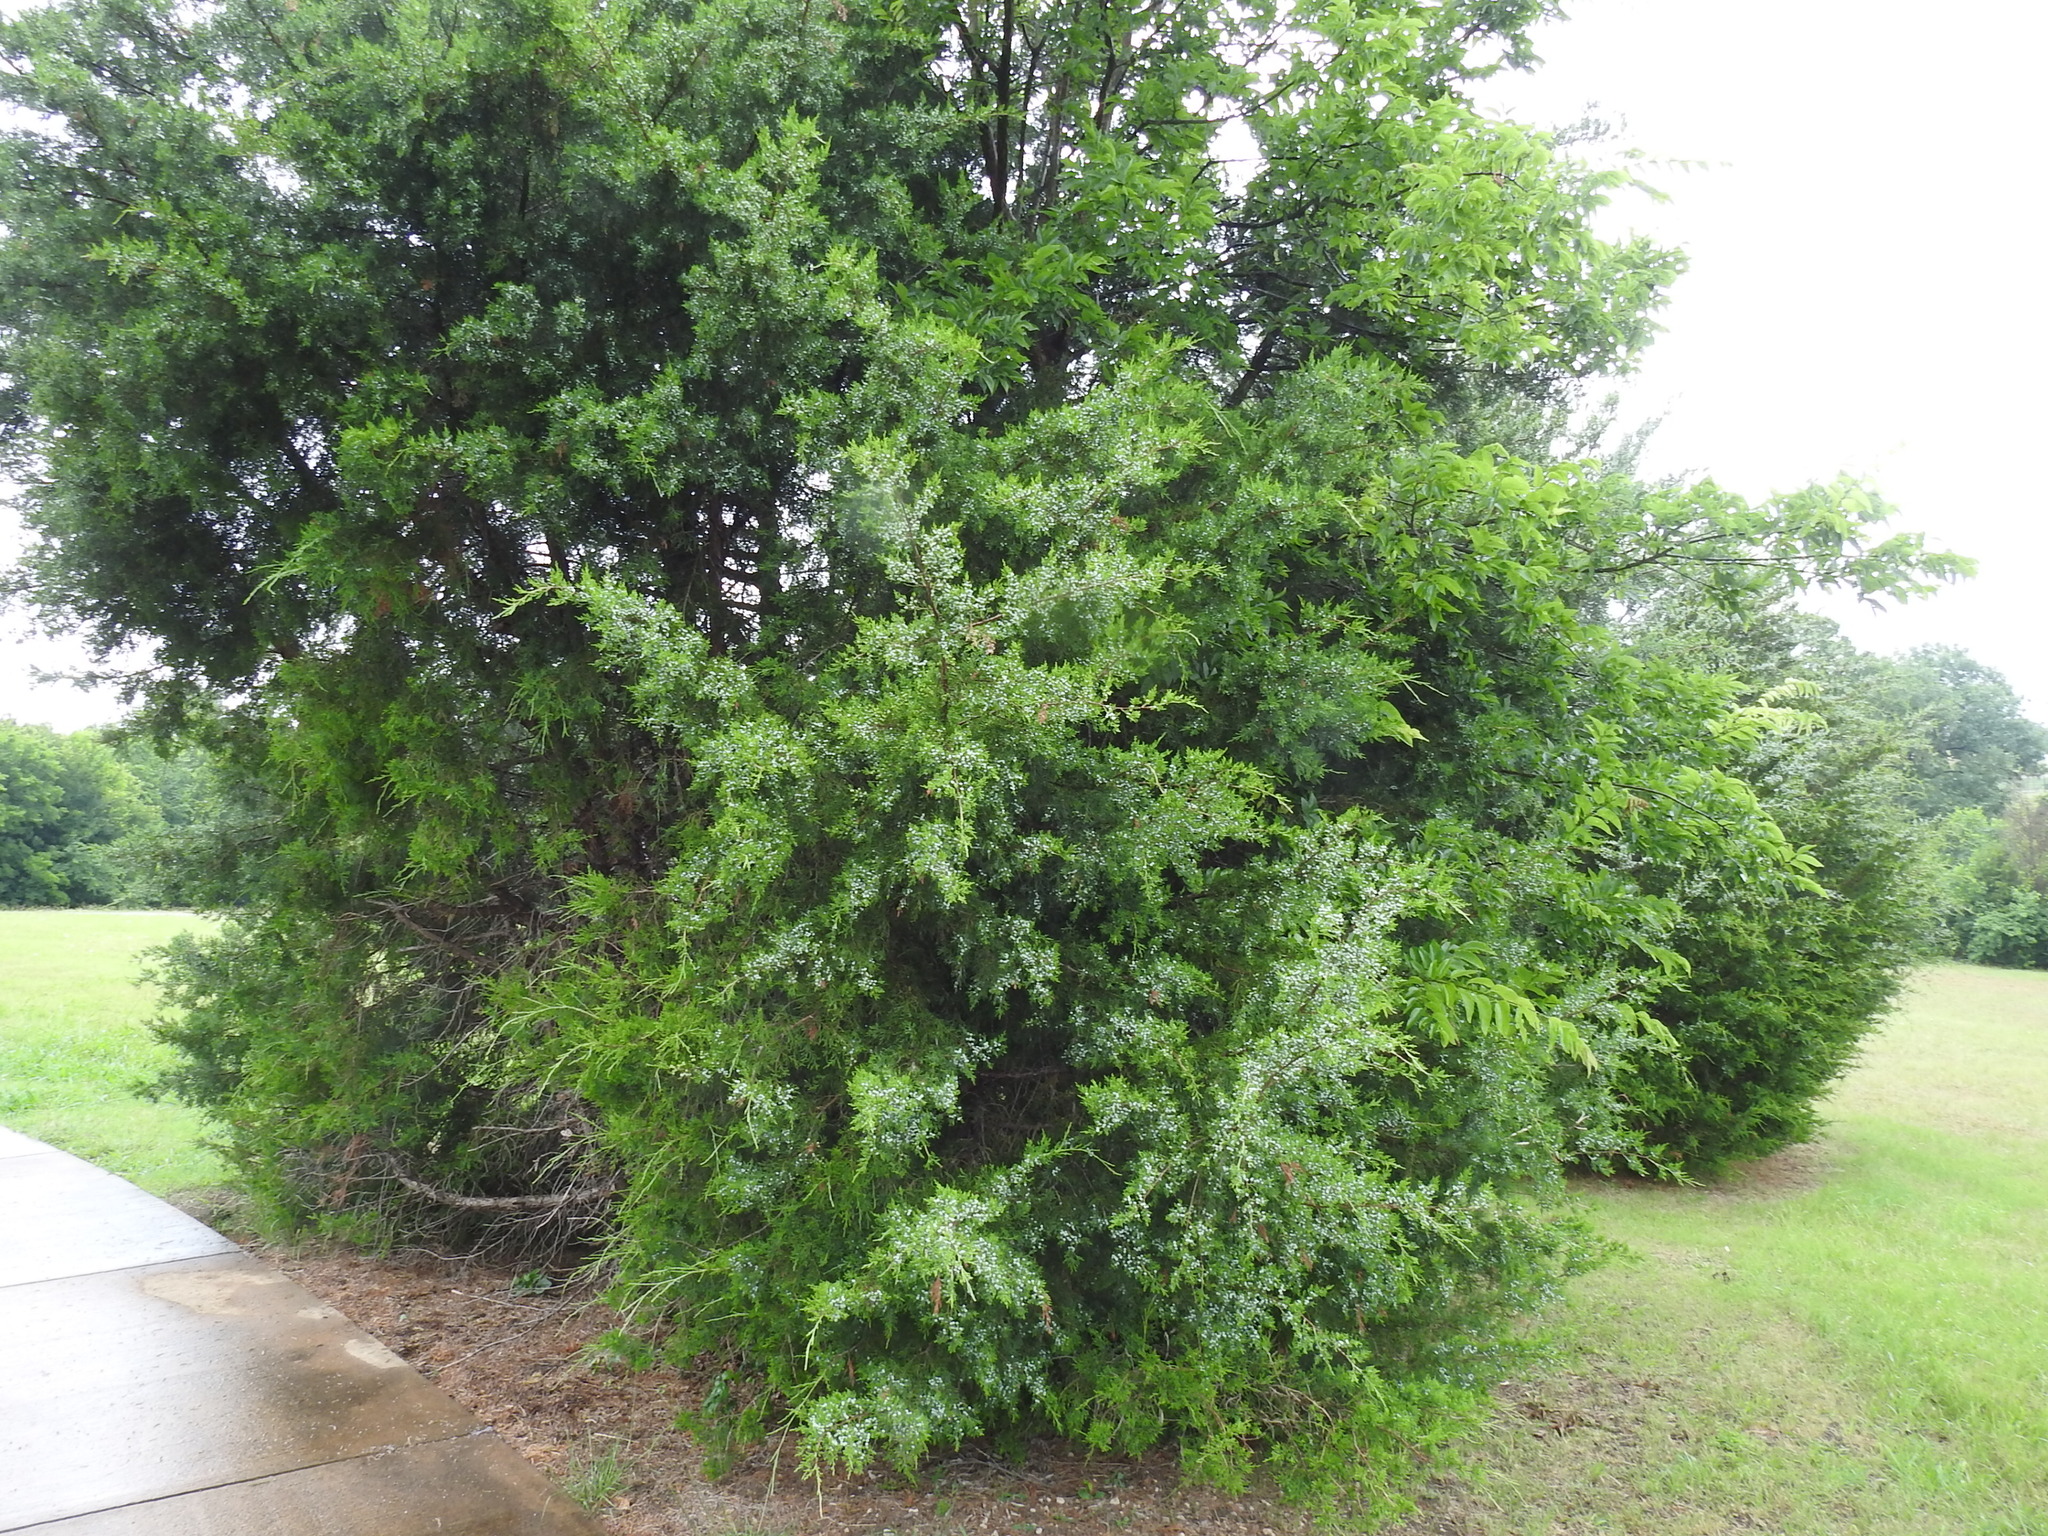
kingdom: Plantae
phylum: Tracheophyta
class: Pinopsida
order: Pinales
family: Cupressaceae
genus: Juniperus
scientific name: Juniperus virginiana
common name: Red juniper
